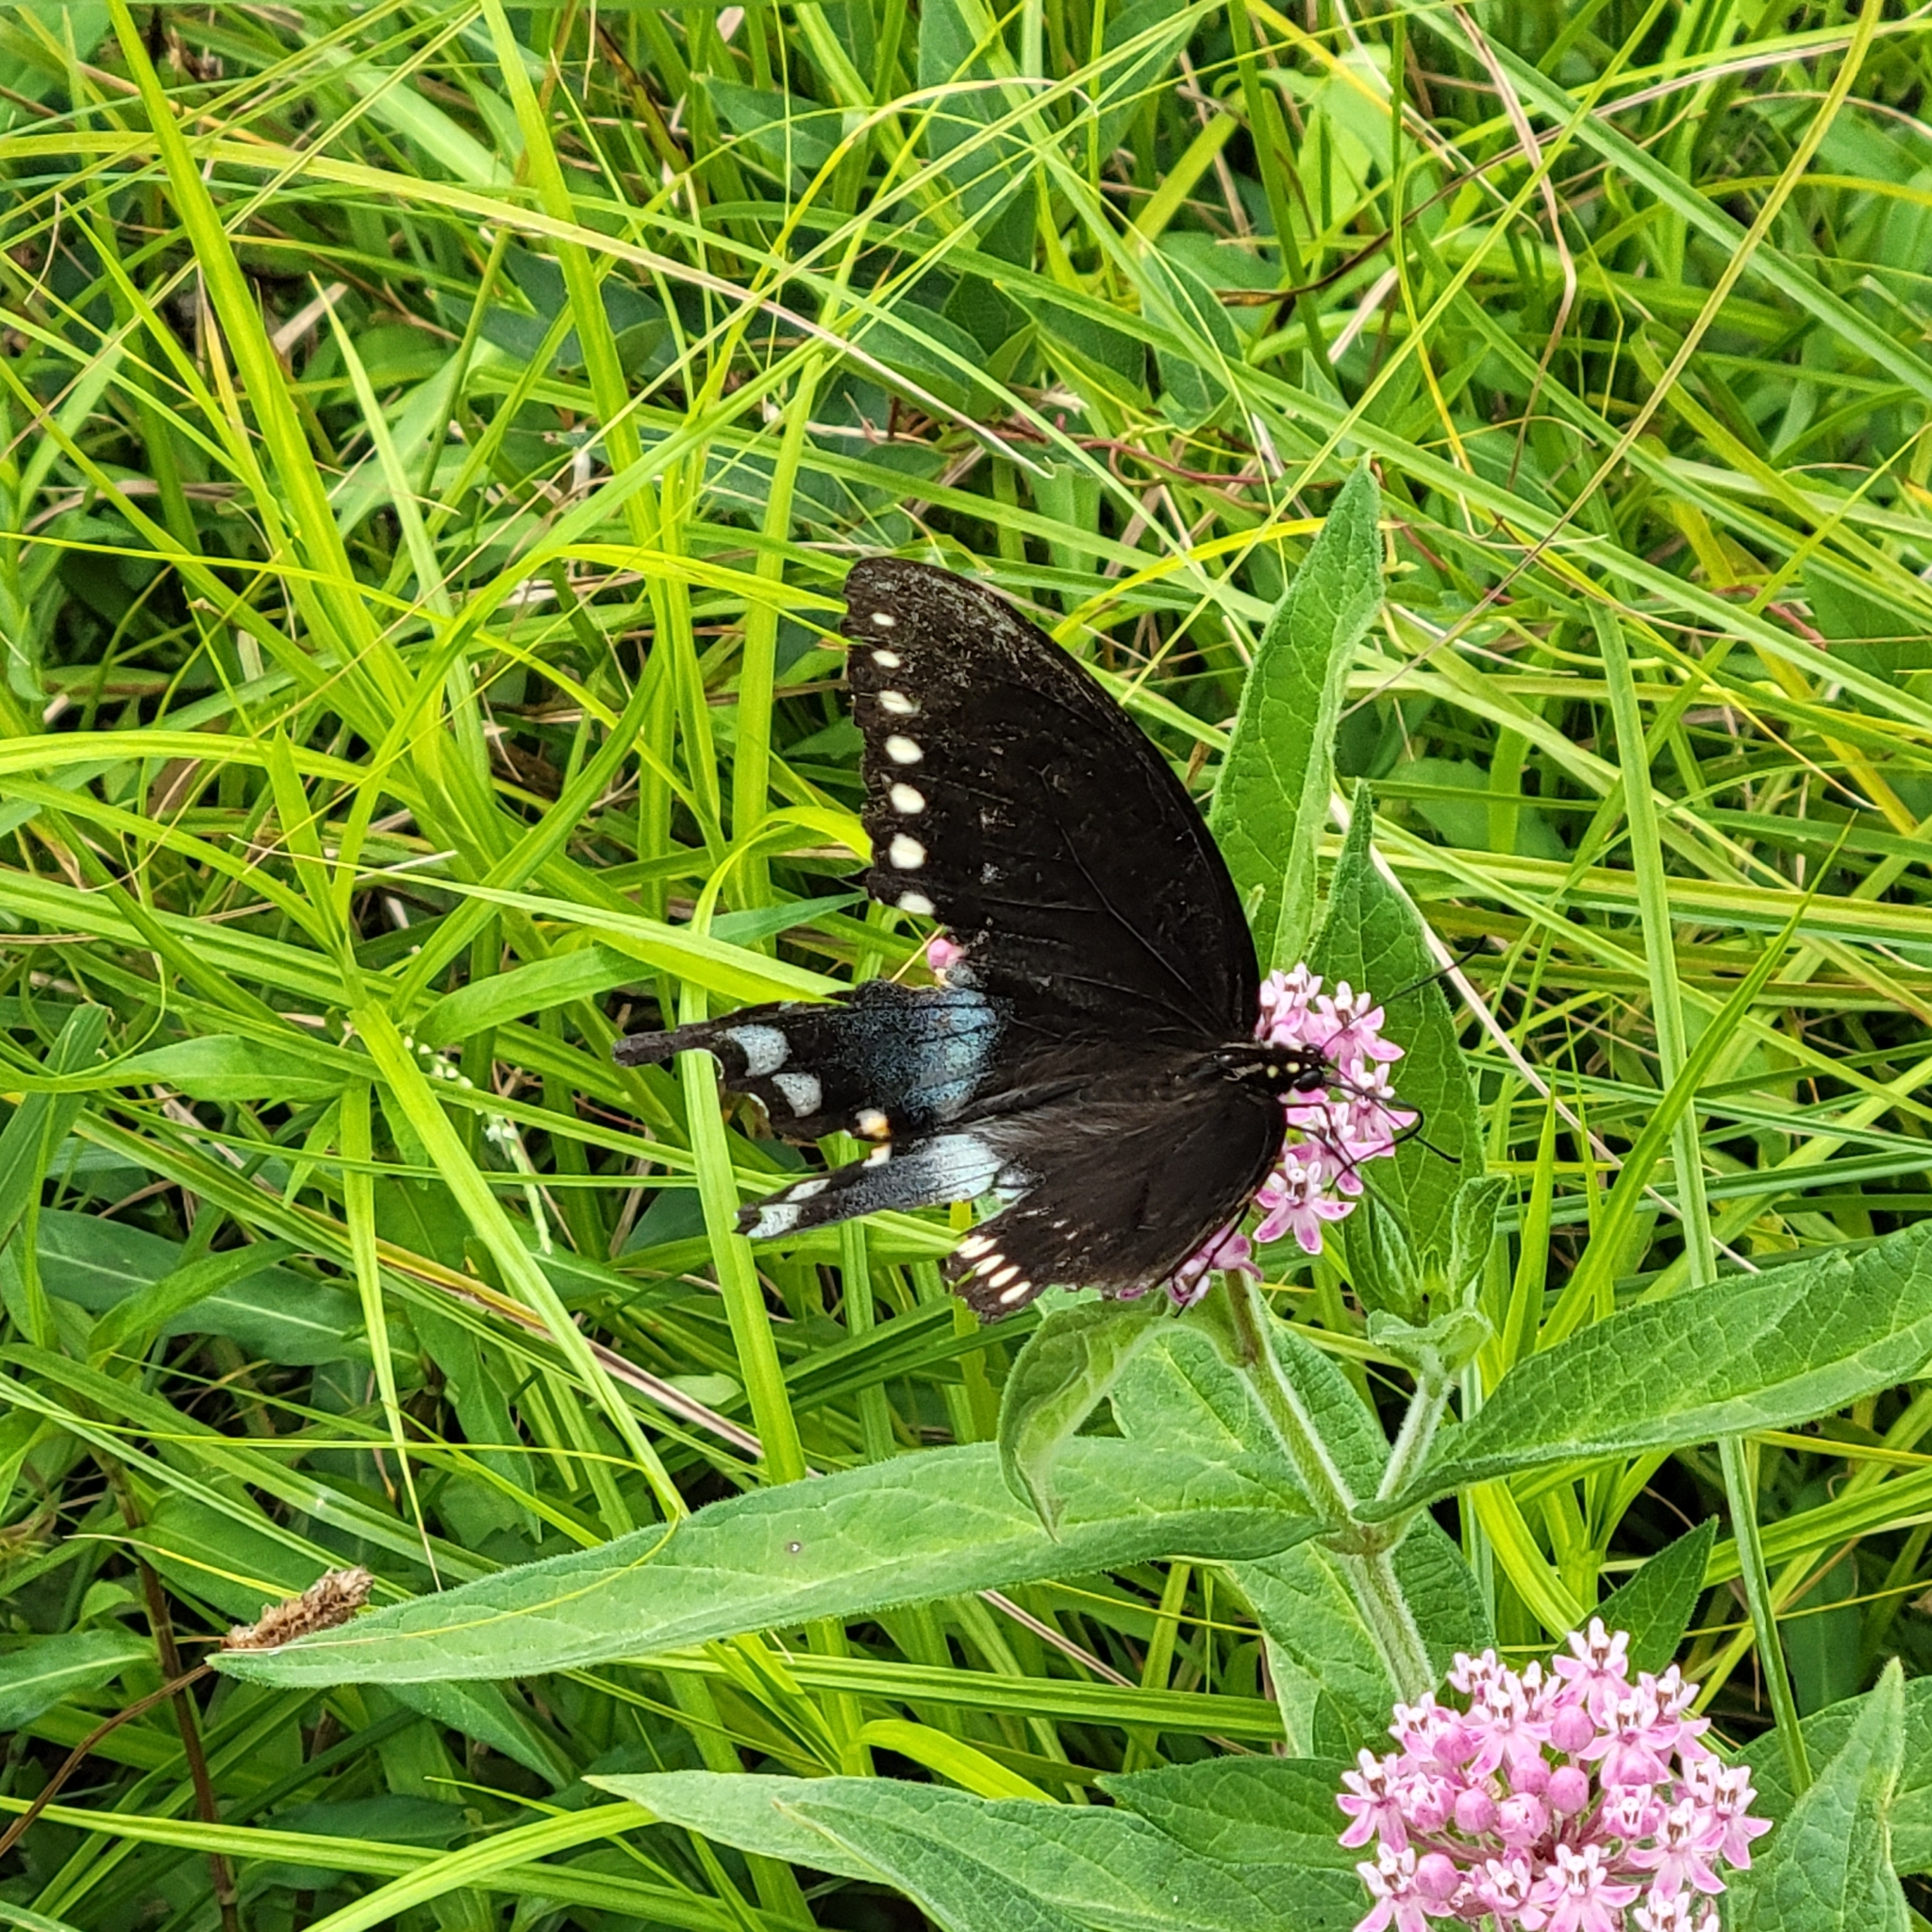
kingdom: Animalia
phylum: Arthropoda
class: Insecta
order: Lepidoptera
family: Papilionidae
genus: Papilio
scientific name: Papilio troilus
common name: Spicebush swallowtail
